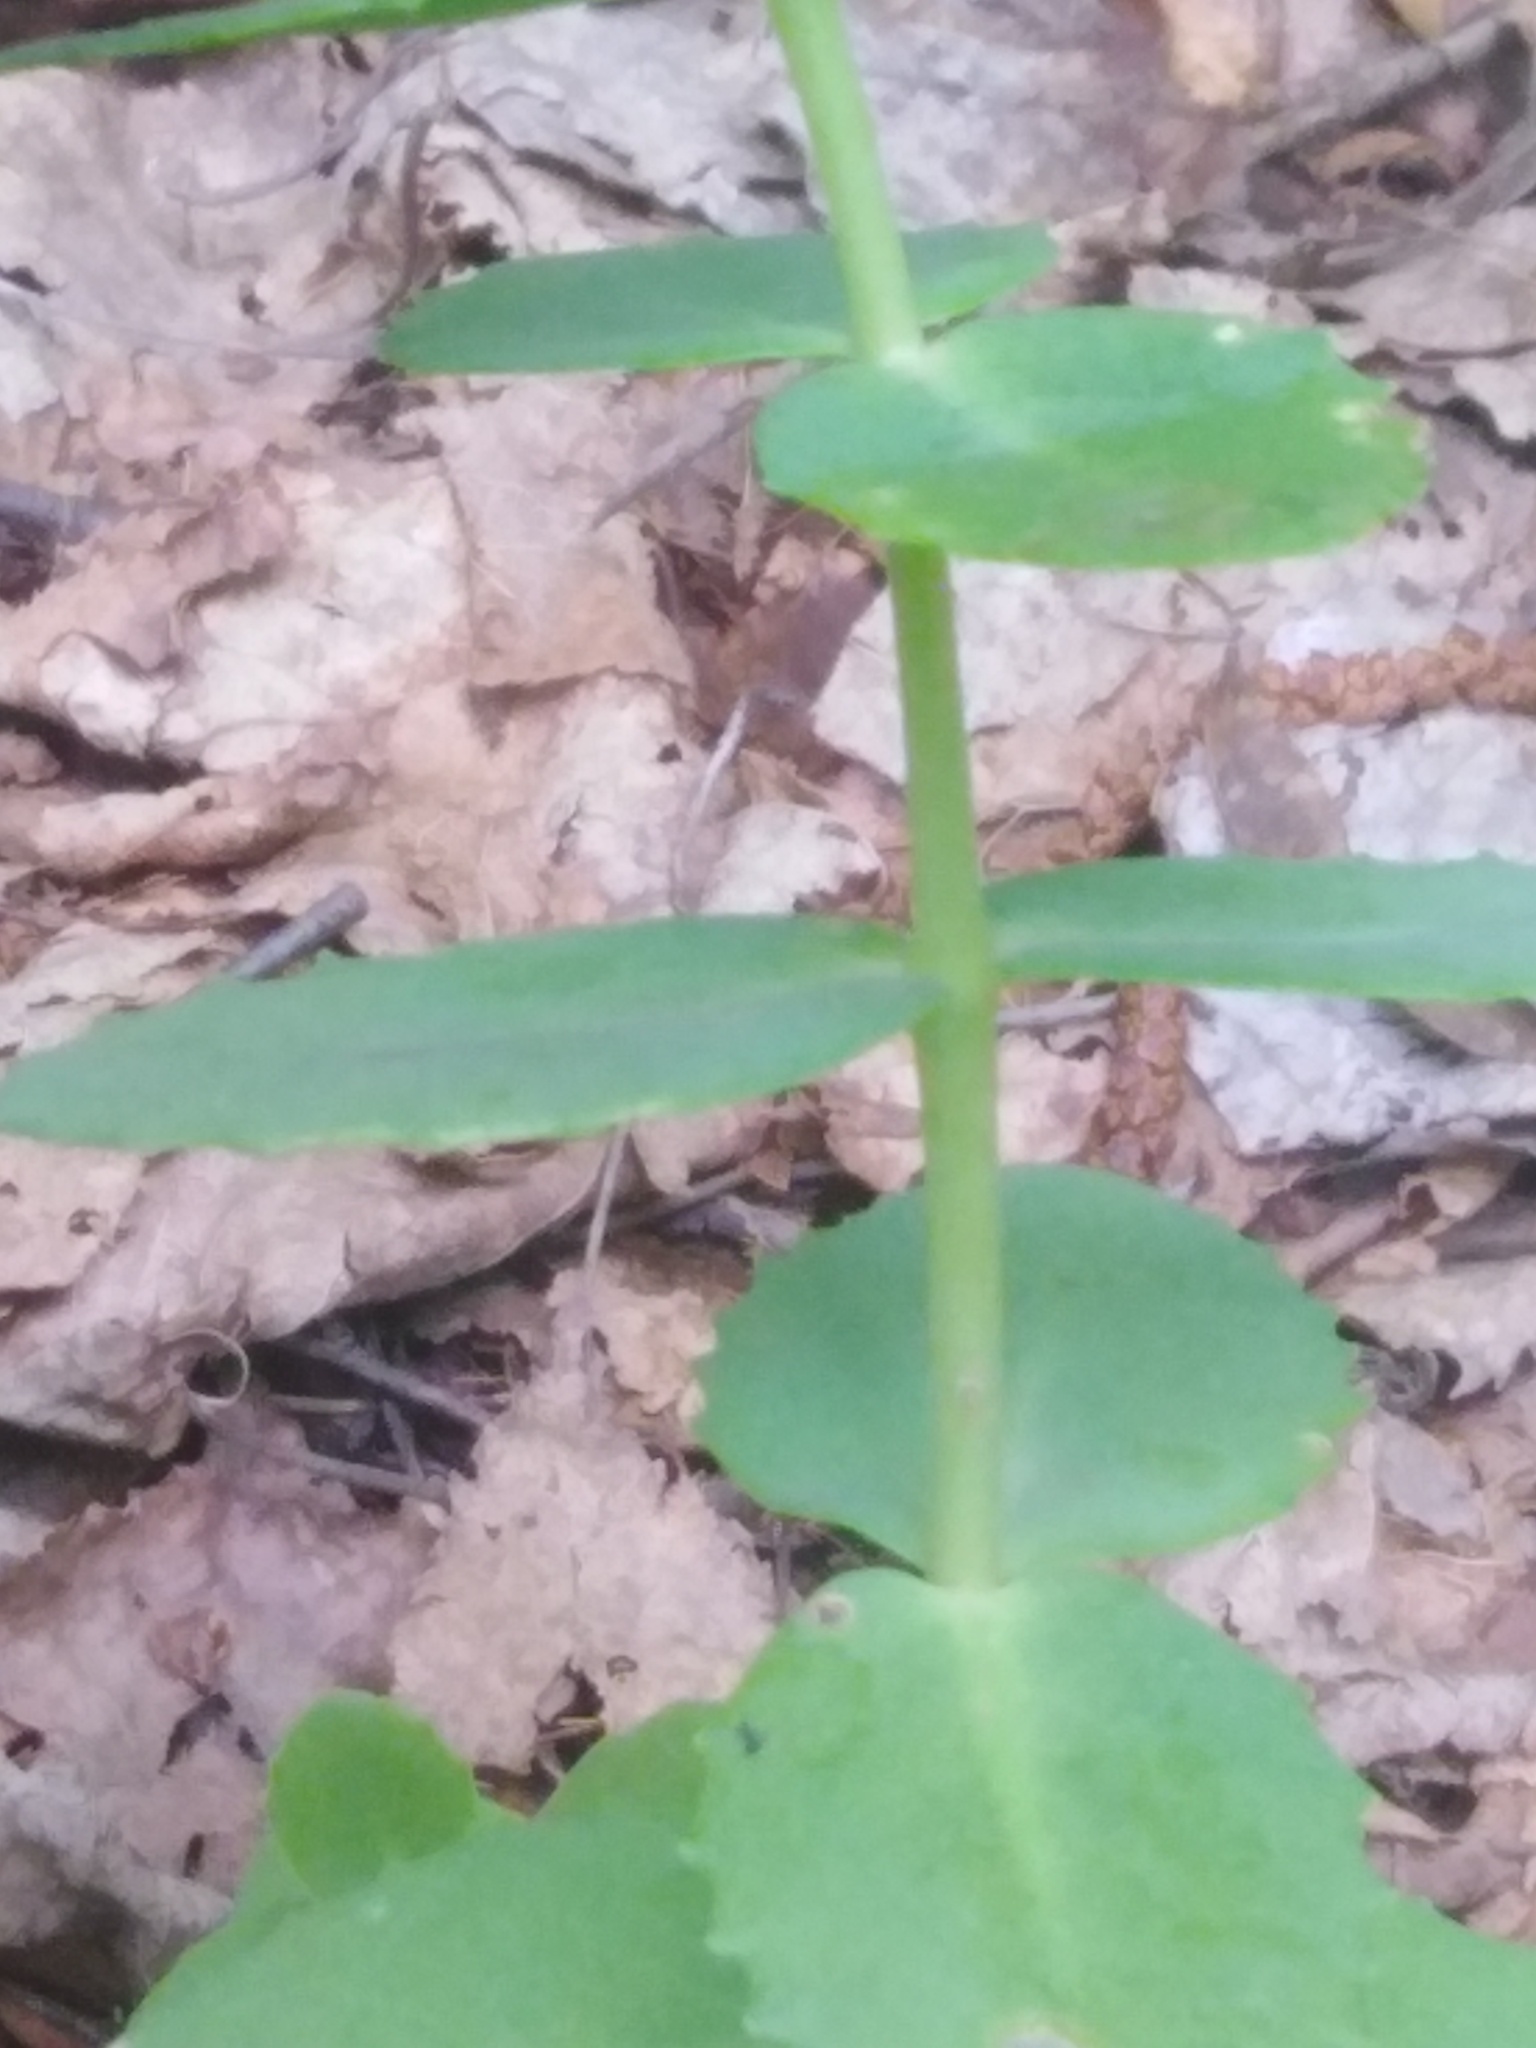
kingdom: Plantae
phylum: Tracheophyta
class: Magnoliopsida
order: Saxifragales
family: Crassulaceae
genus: Hylotelephium
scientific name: Hylotelephium maximum
